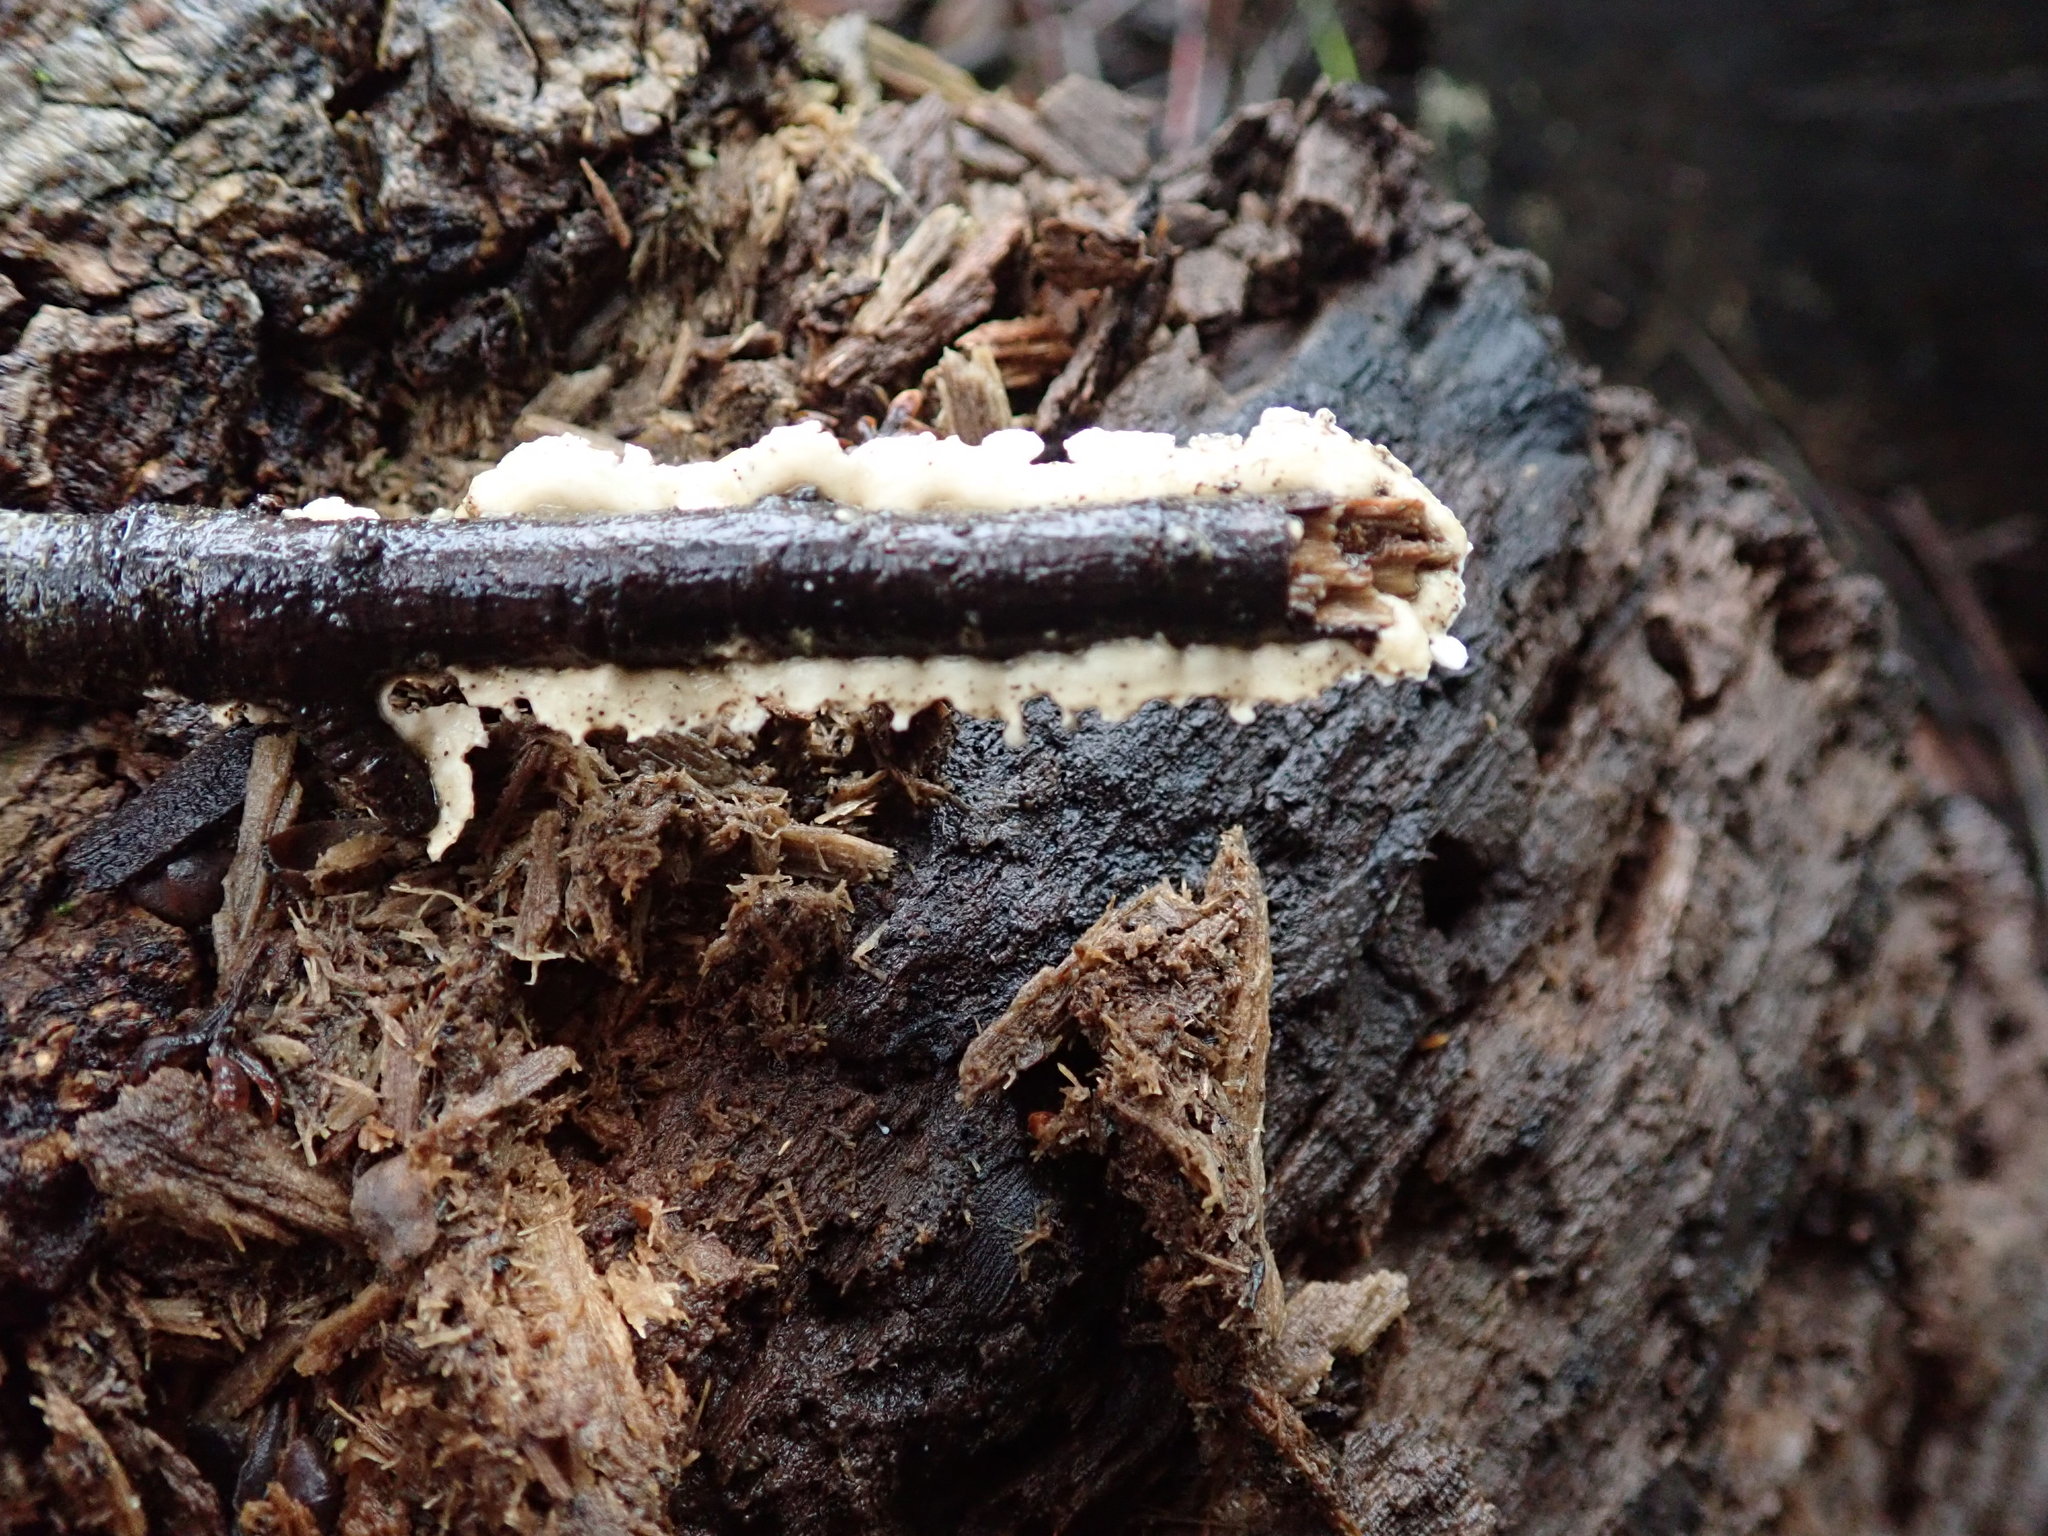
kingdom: Fungi
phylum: Basidiomycota
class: Agaricomycetes
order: Polyporales
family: Irpicaceae
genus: Byssomerulius
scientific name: Byssomerulius corium
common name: Netted crust
